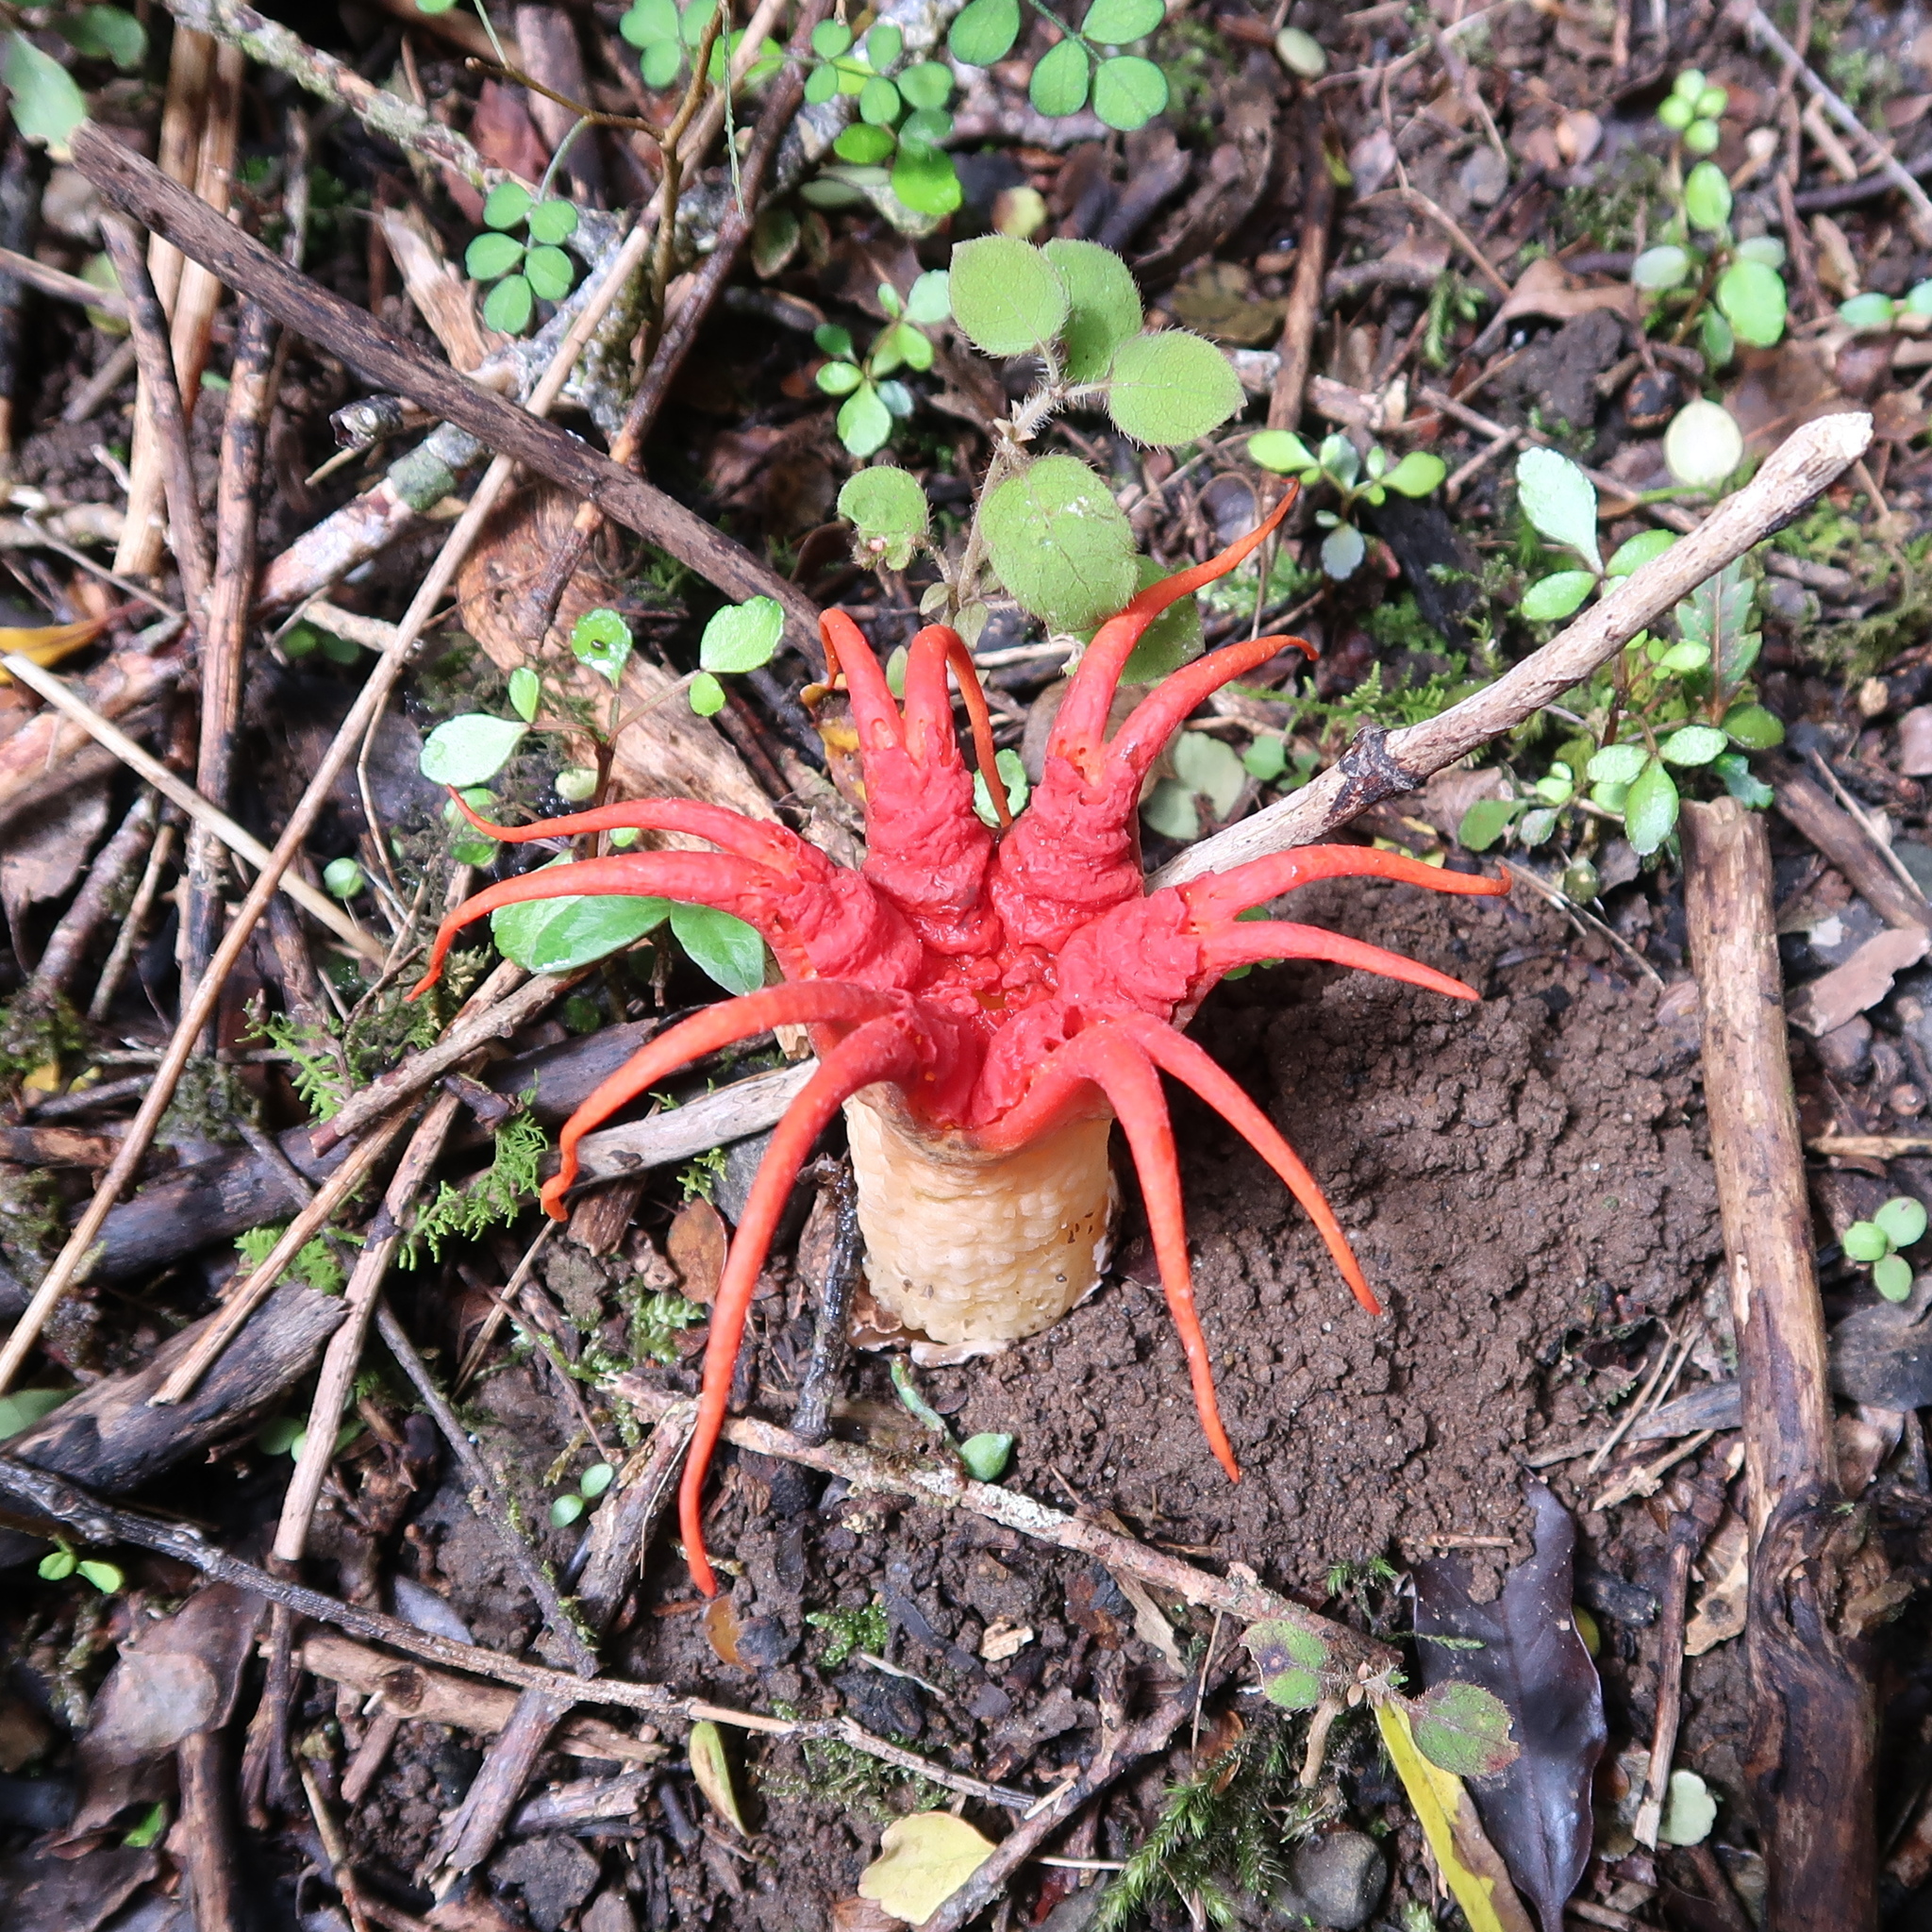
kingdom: Fungi
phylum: Basidiomycota
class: Agaricomycetes
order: Phallales
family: Phallaceae
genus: Aseroe
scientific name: Aseroe rubra
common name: Starfish fungus
